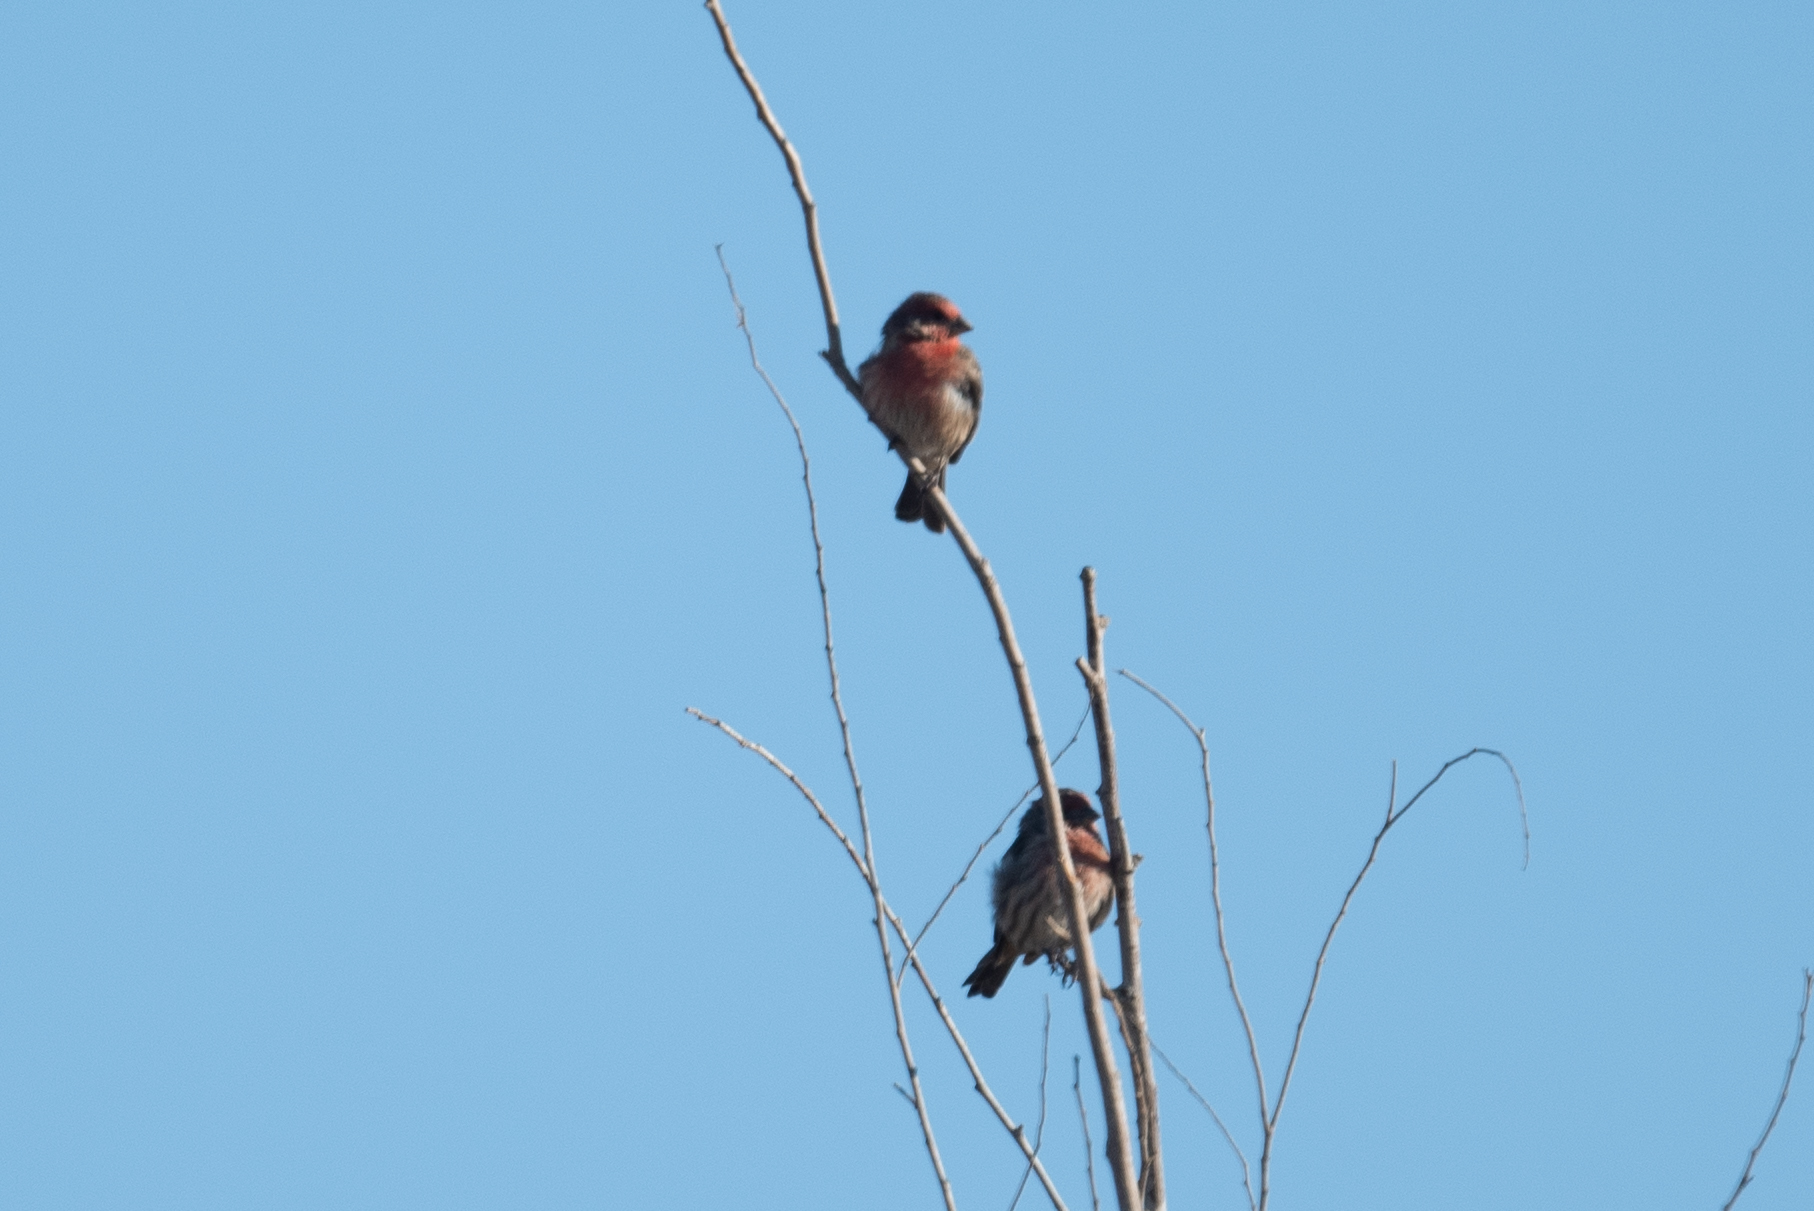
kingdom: Animalia
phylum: Chordata
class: Aves
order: Passeriformes
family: Fringillidae
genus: Haemorhous
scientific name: Haemorhous mexicanus
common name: House finch
